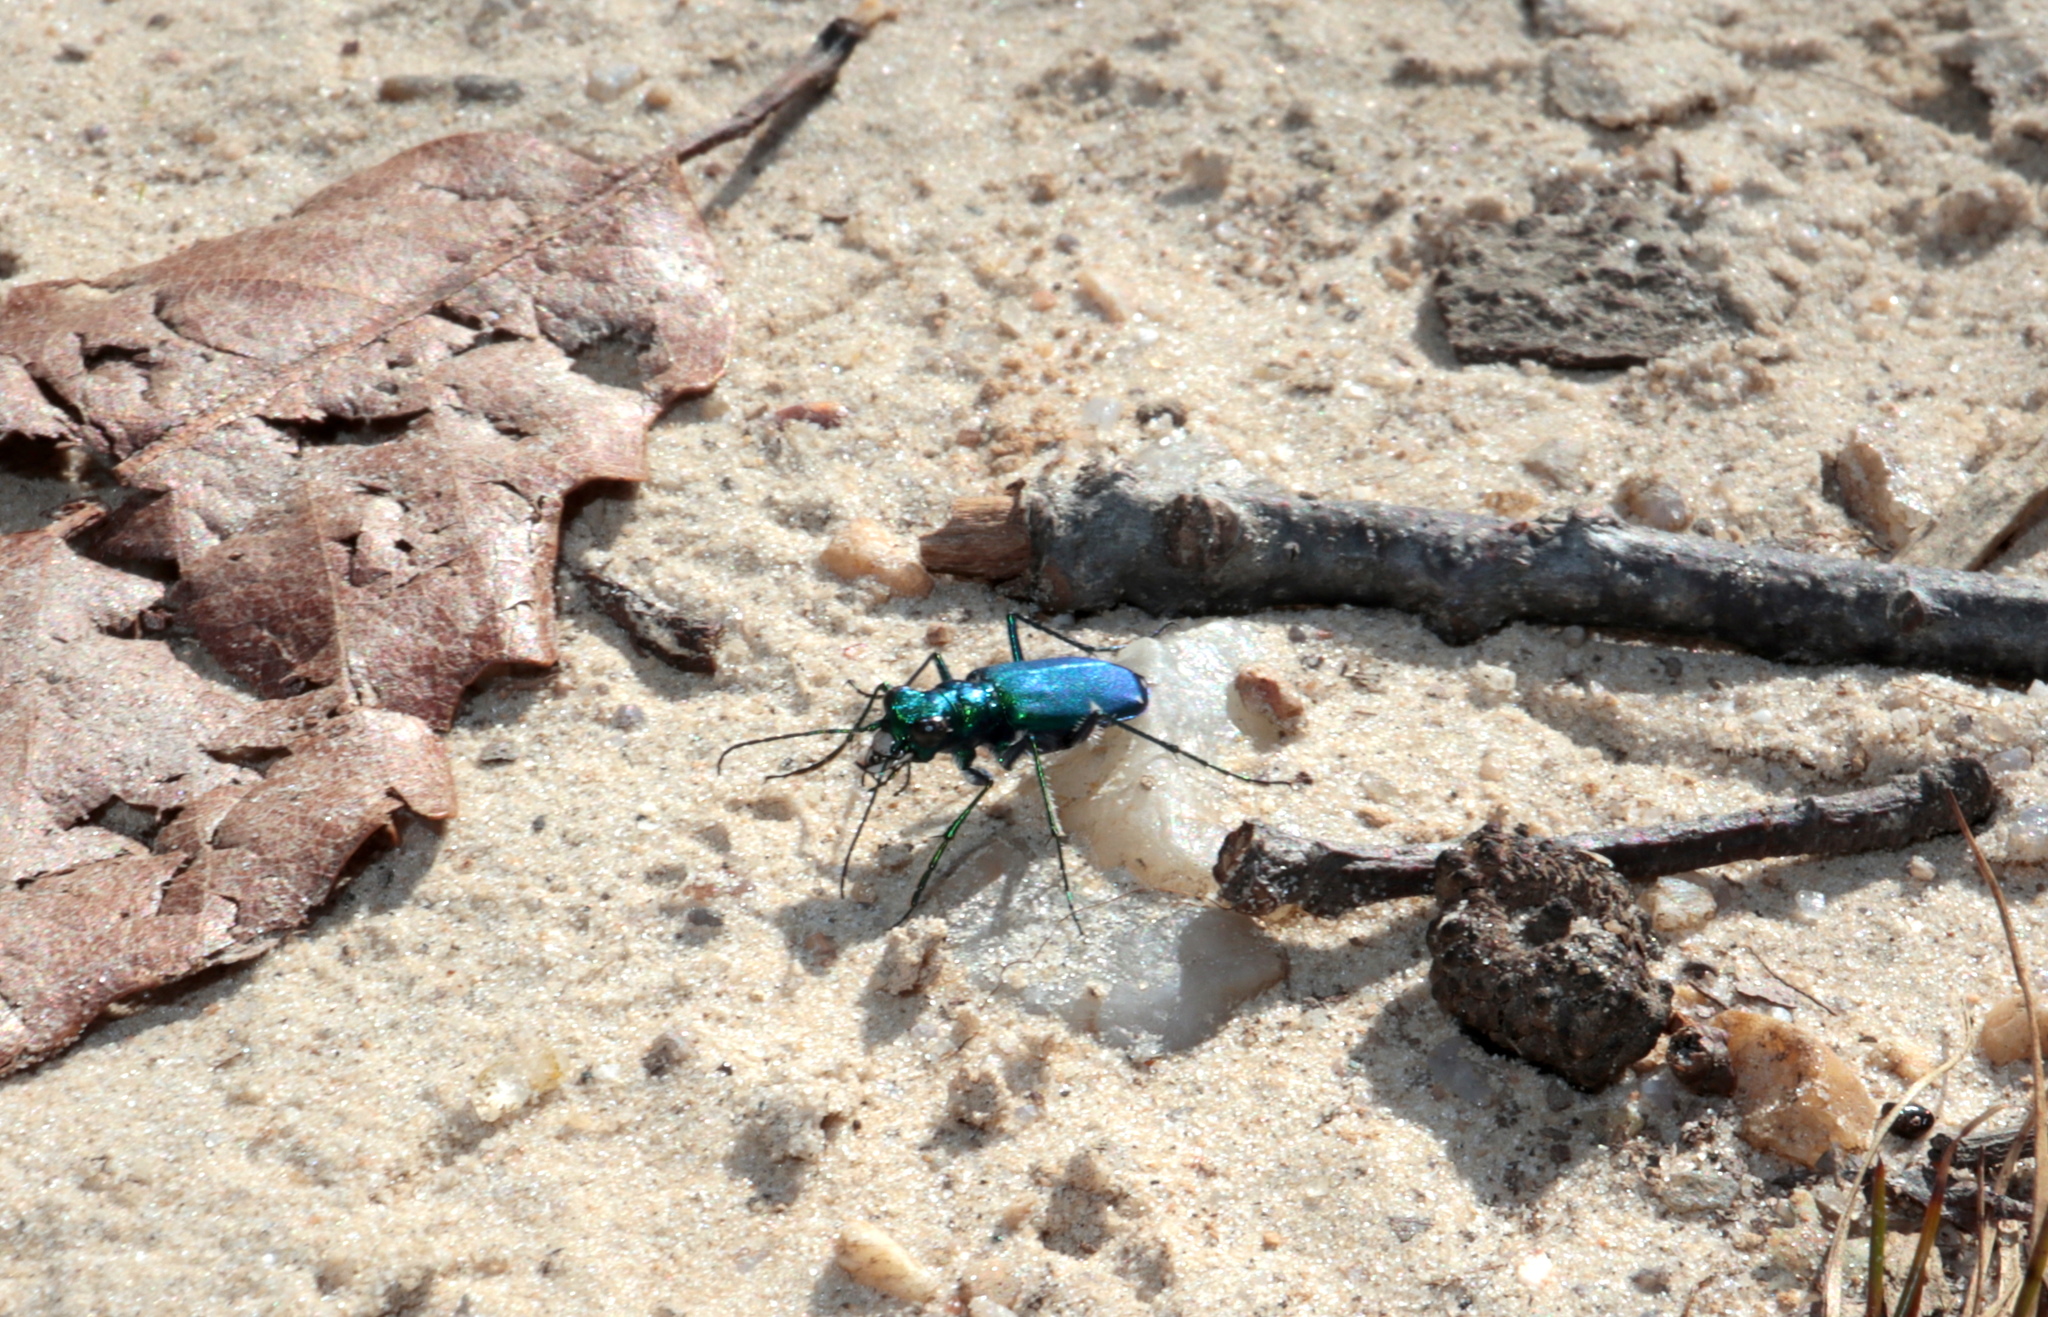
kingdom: Animalia
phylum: Arthropoda
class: Insecta
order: Coleoptera
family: Carabidae
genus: Cicindela
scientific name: Cicindela sexguttata
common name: Six-spotted tiger beetle
